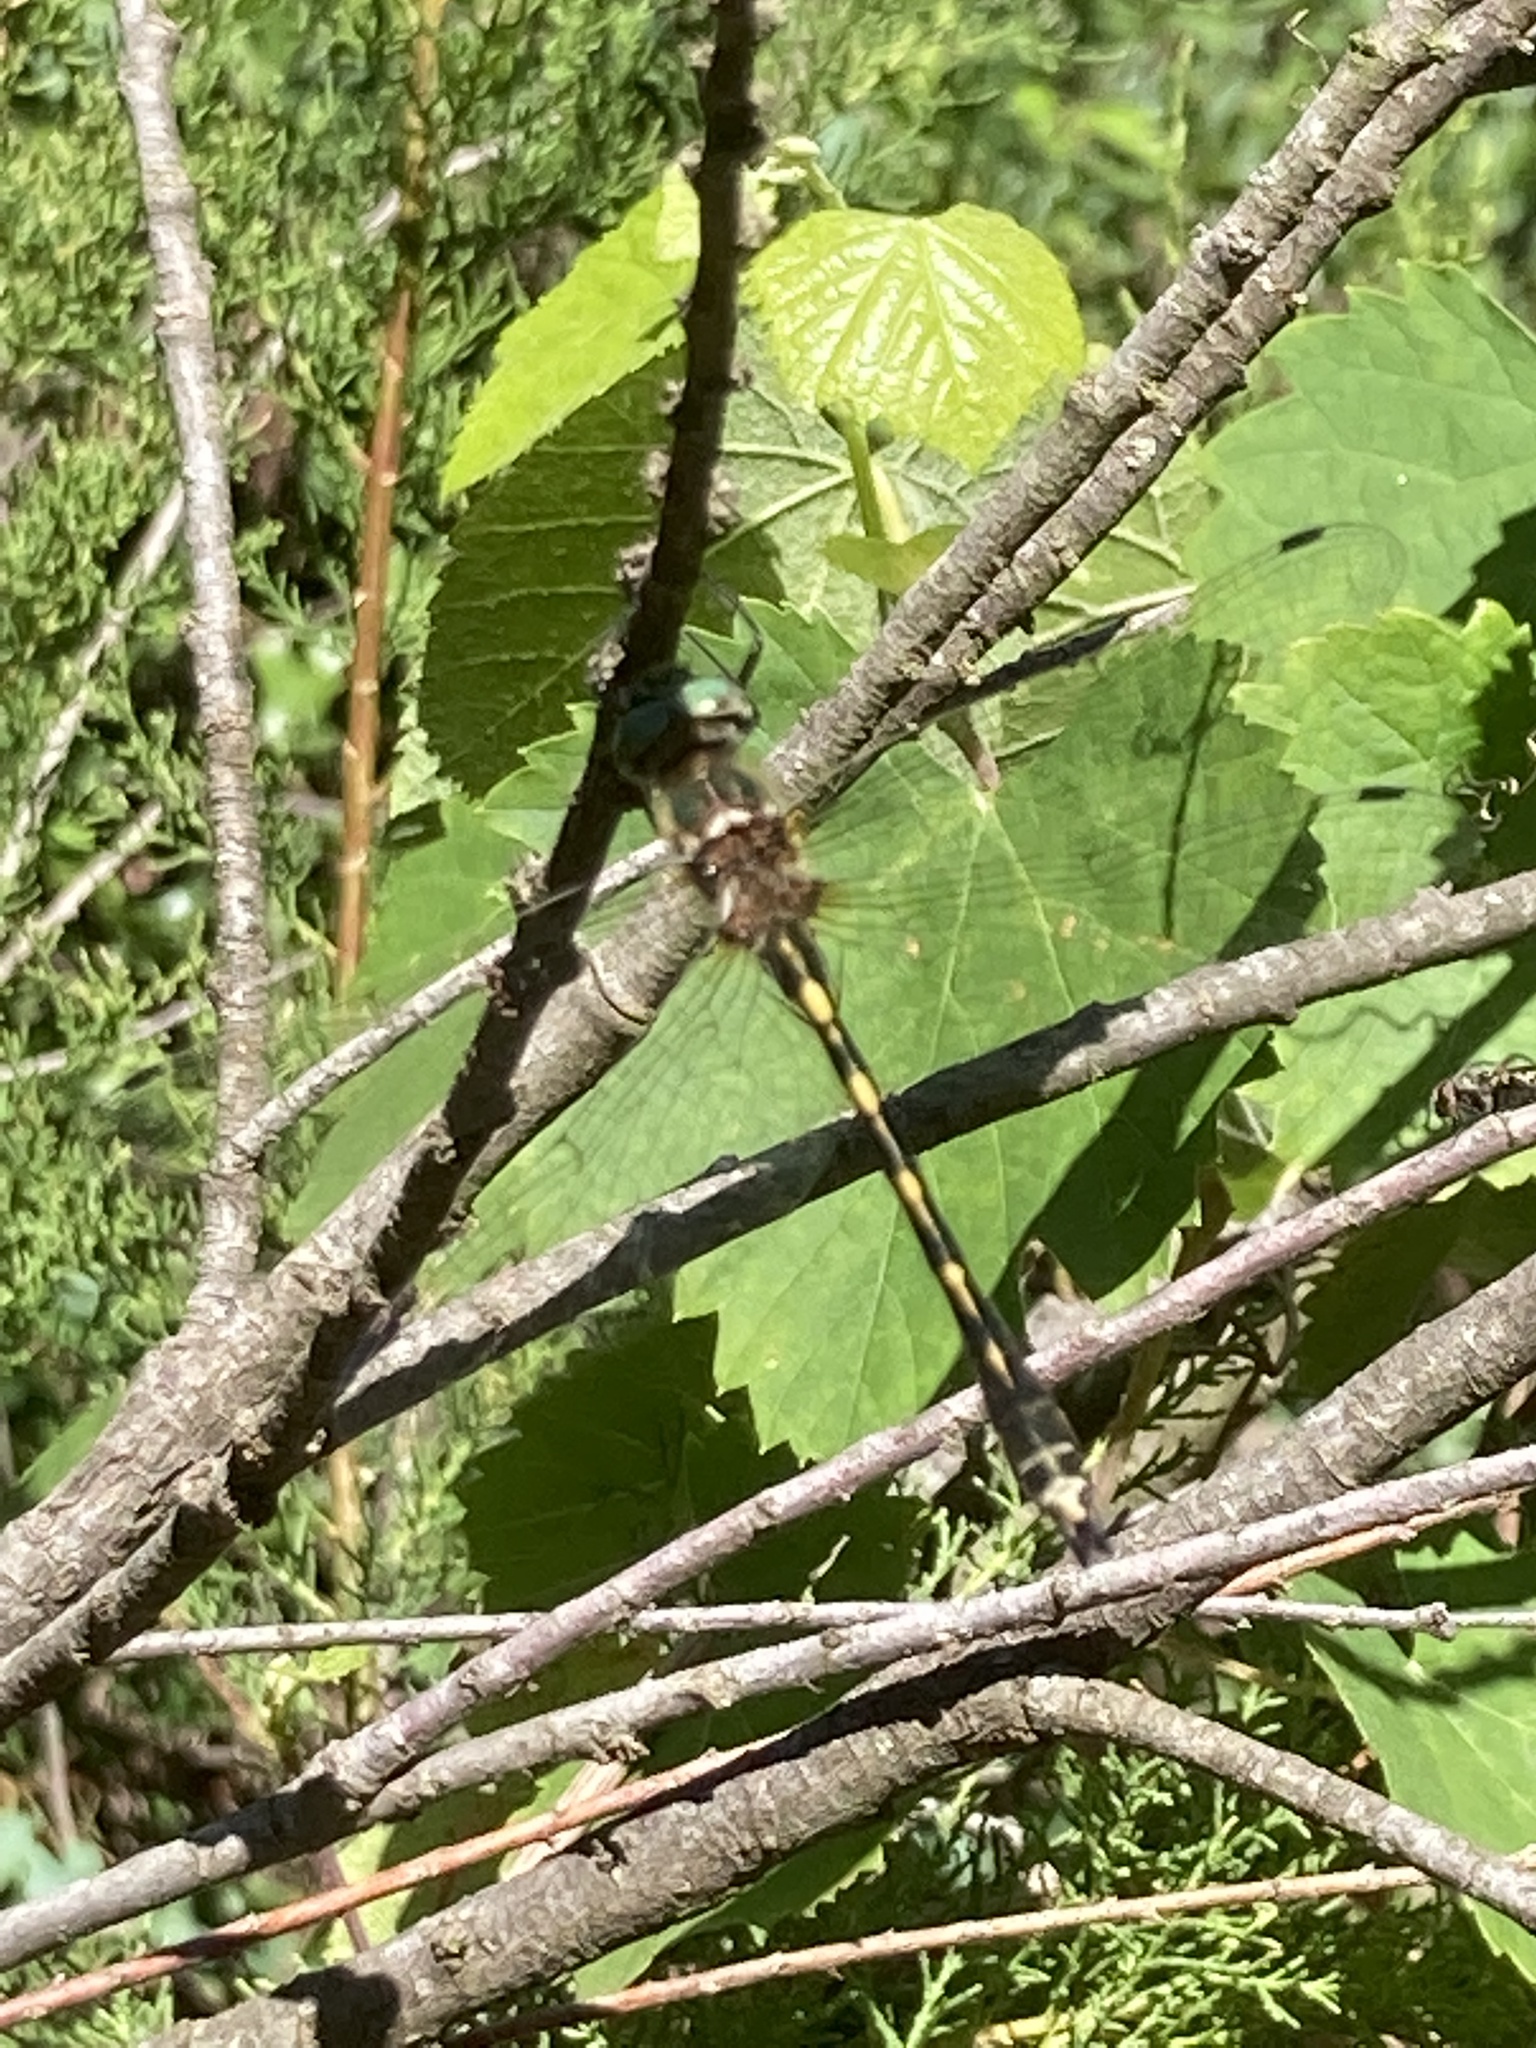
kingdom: Animalia
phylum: Arthropoda
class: Insecta
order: Odonata
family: Corduliidae
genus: Oxygastra
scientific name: Oxygastra curtisii
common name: Orange-spotted emerald
